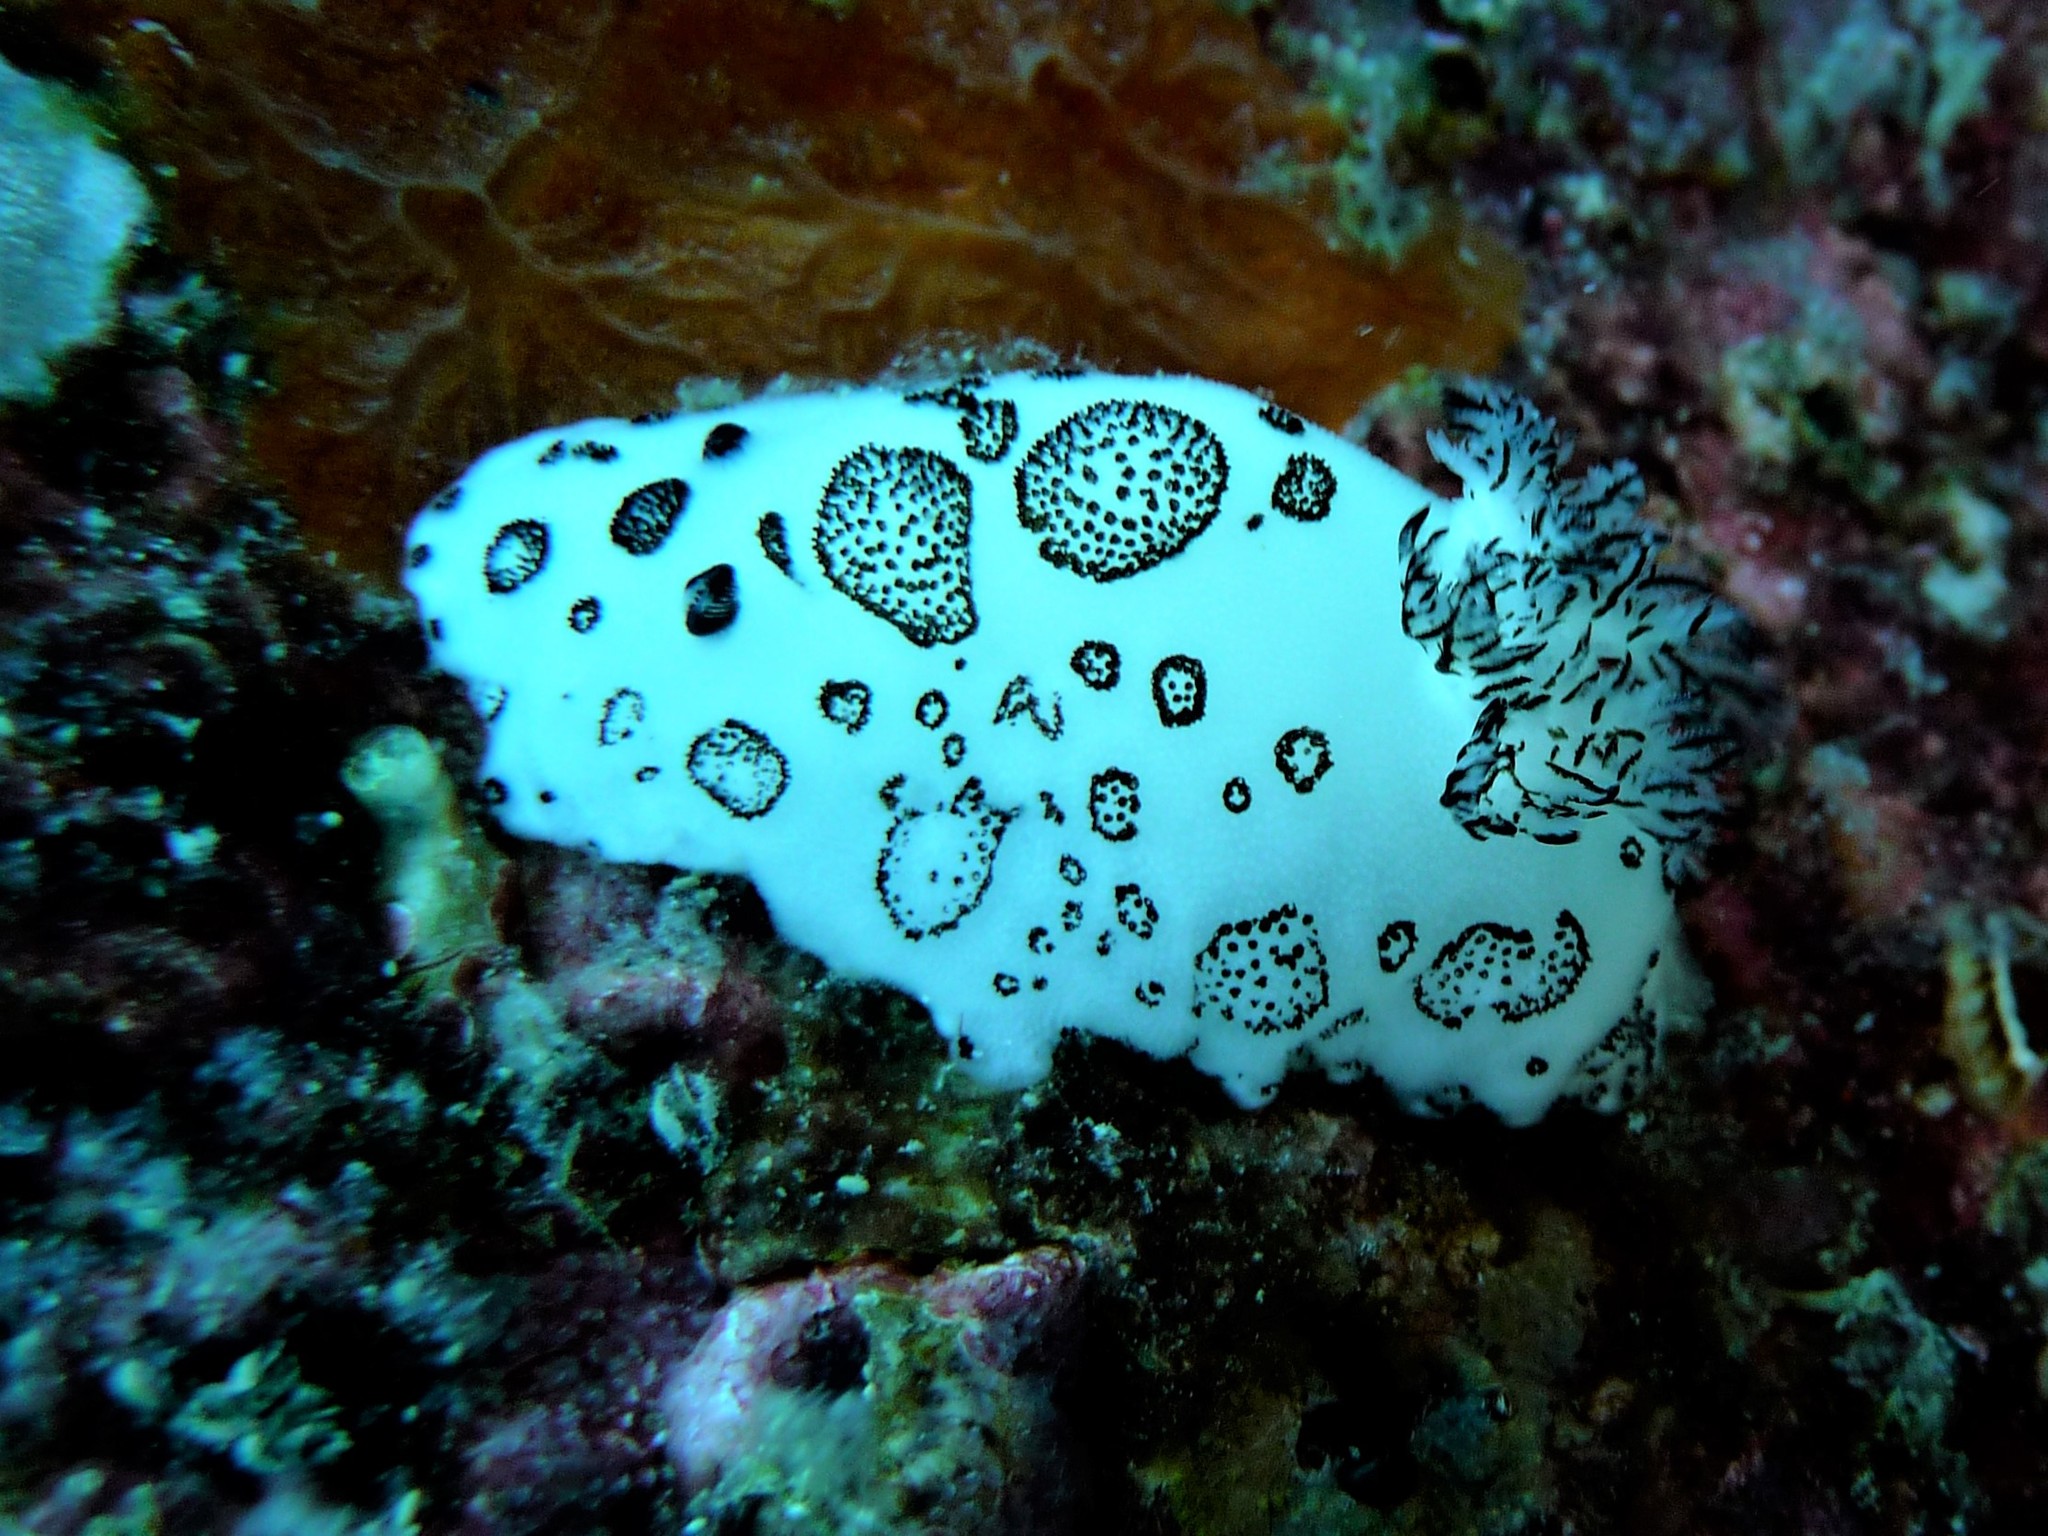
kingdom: Animalia
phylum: Mollusca
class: Gastropoda
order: Nudibranchia
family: Discodorididae
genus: Jorunna
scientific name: Jorunna funebris
